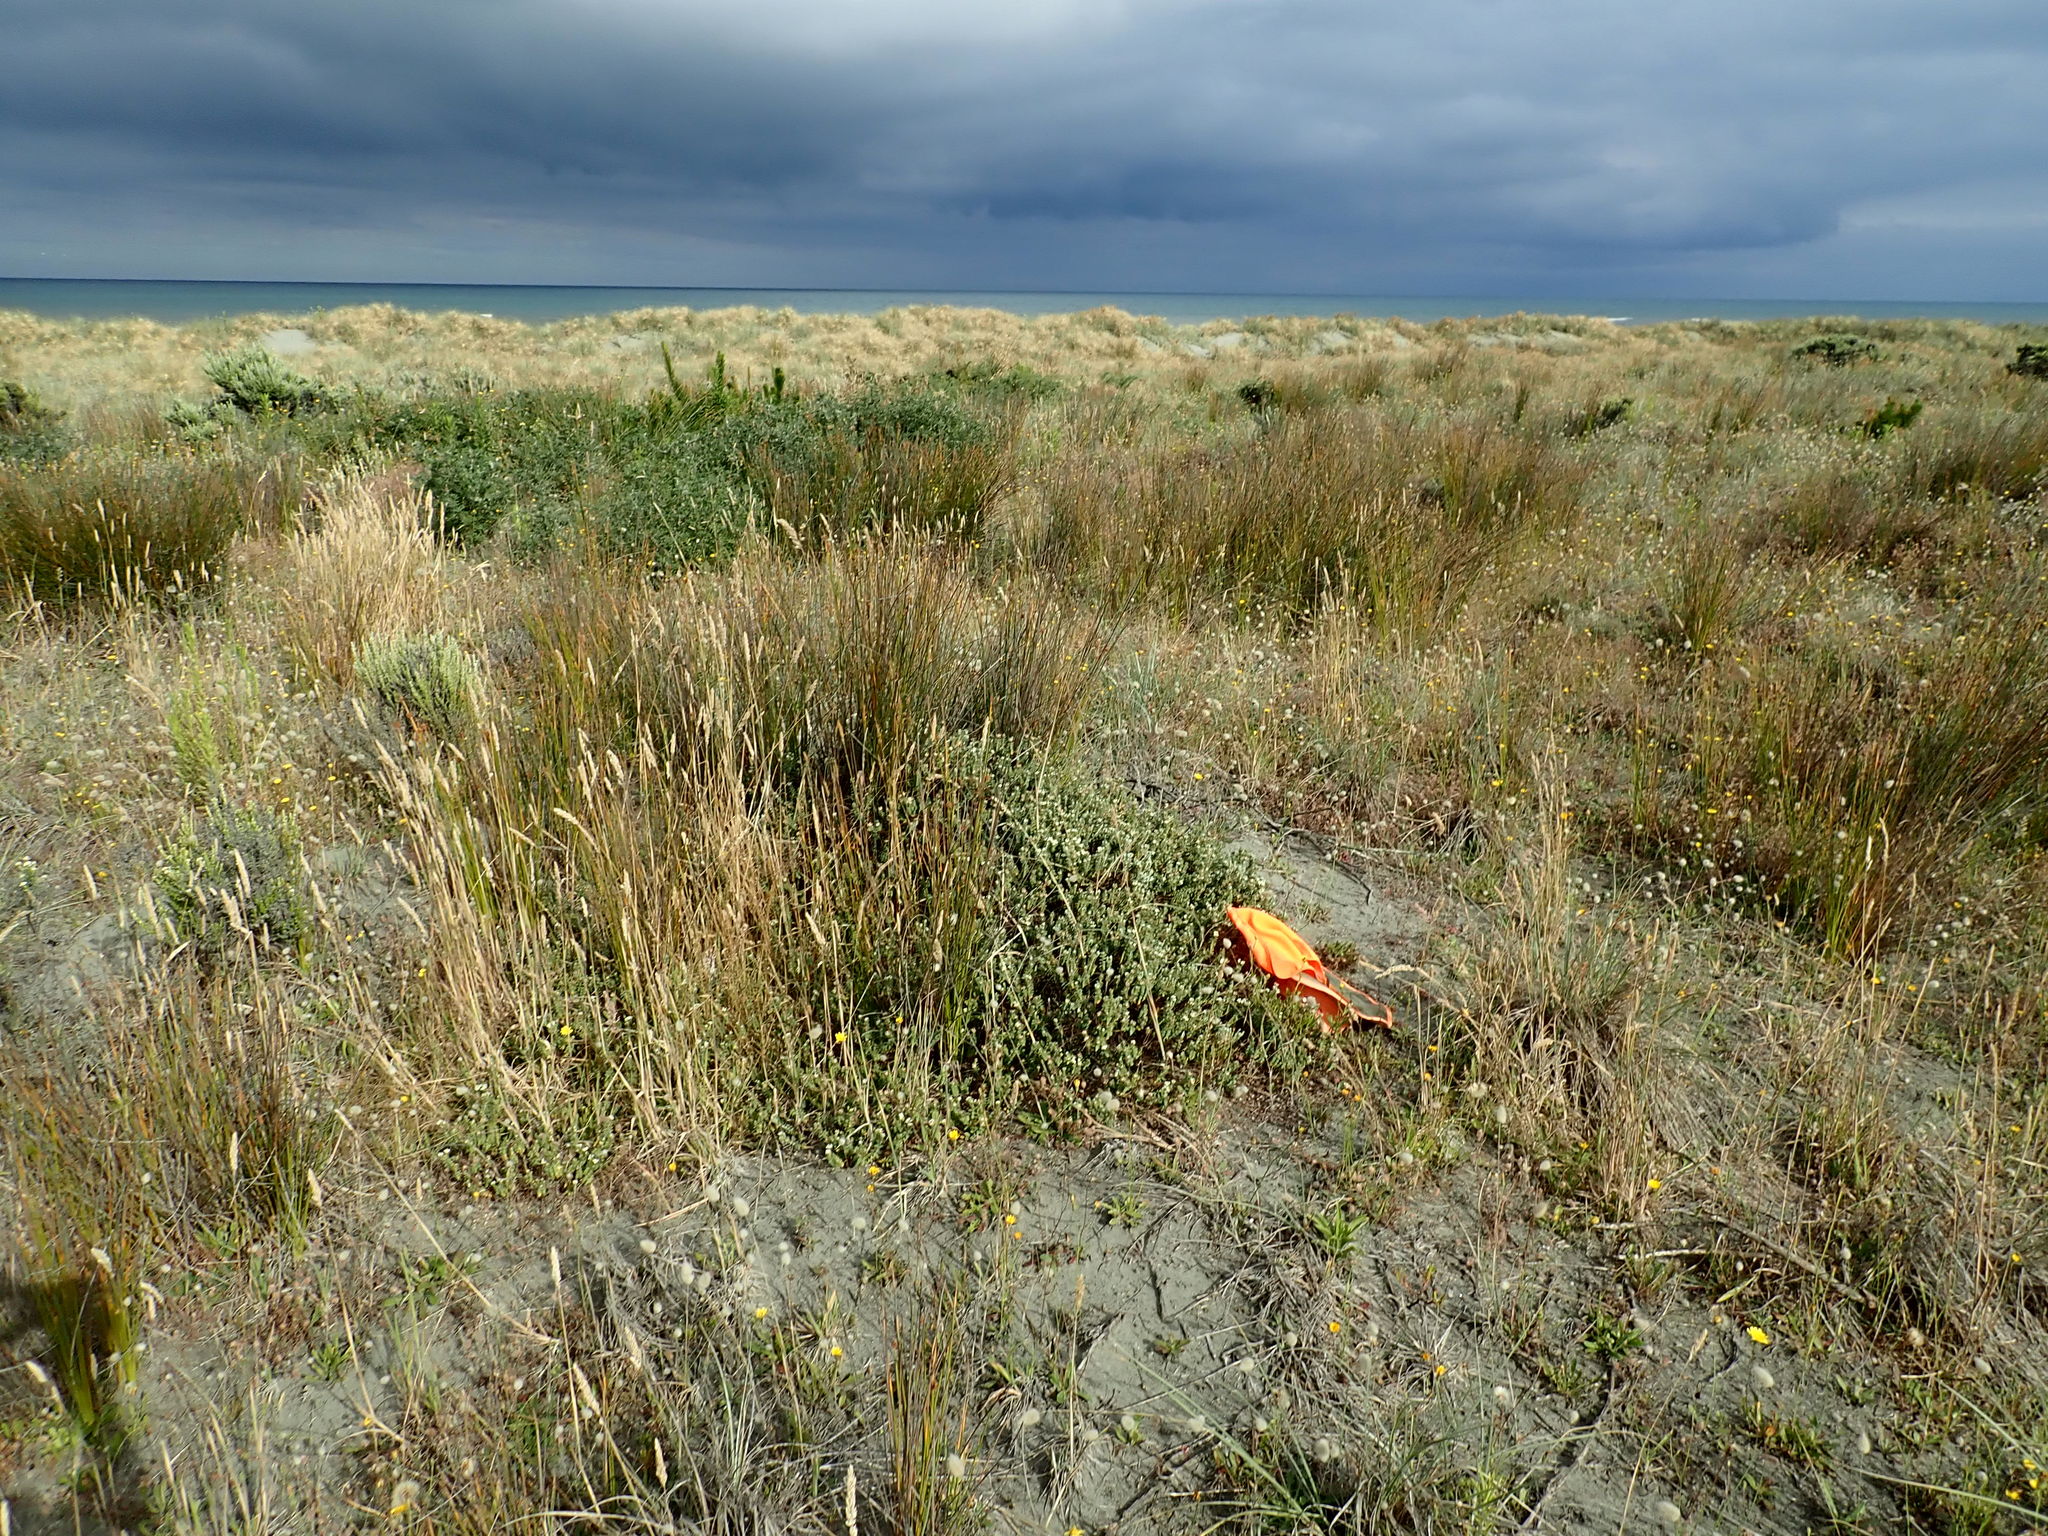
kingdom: Plantae
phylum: Tracheophyta
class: Magnoliopsida
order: Malvales
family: Thymelaeaceae
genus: Pimelea
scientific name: Pimelea villosa
